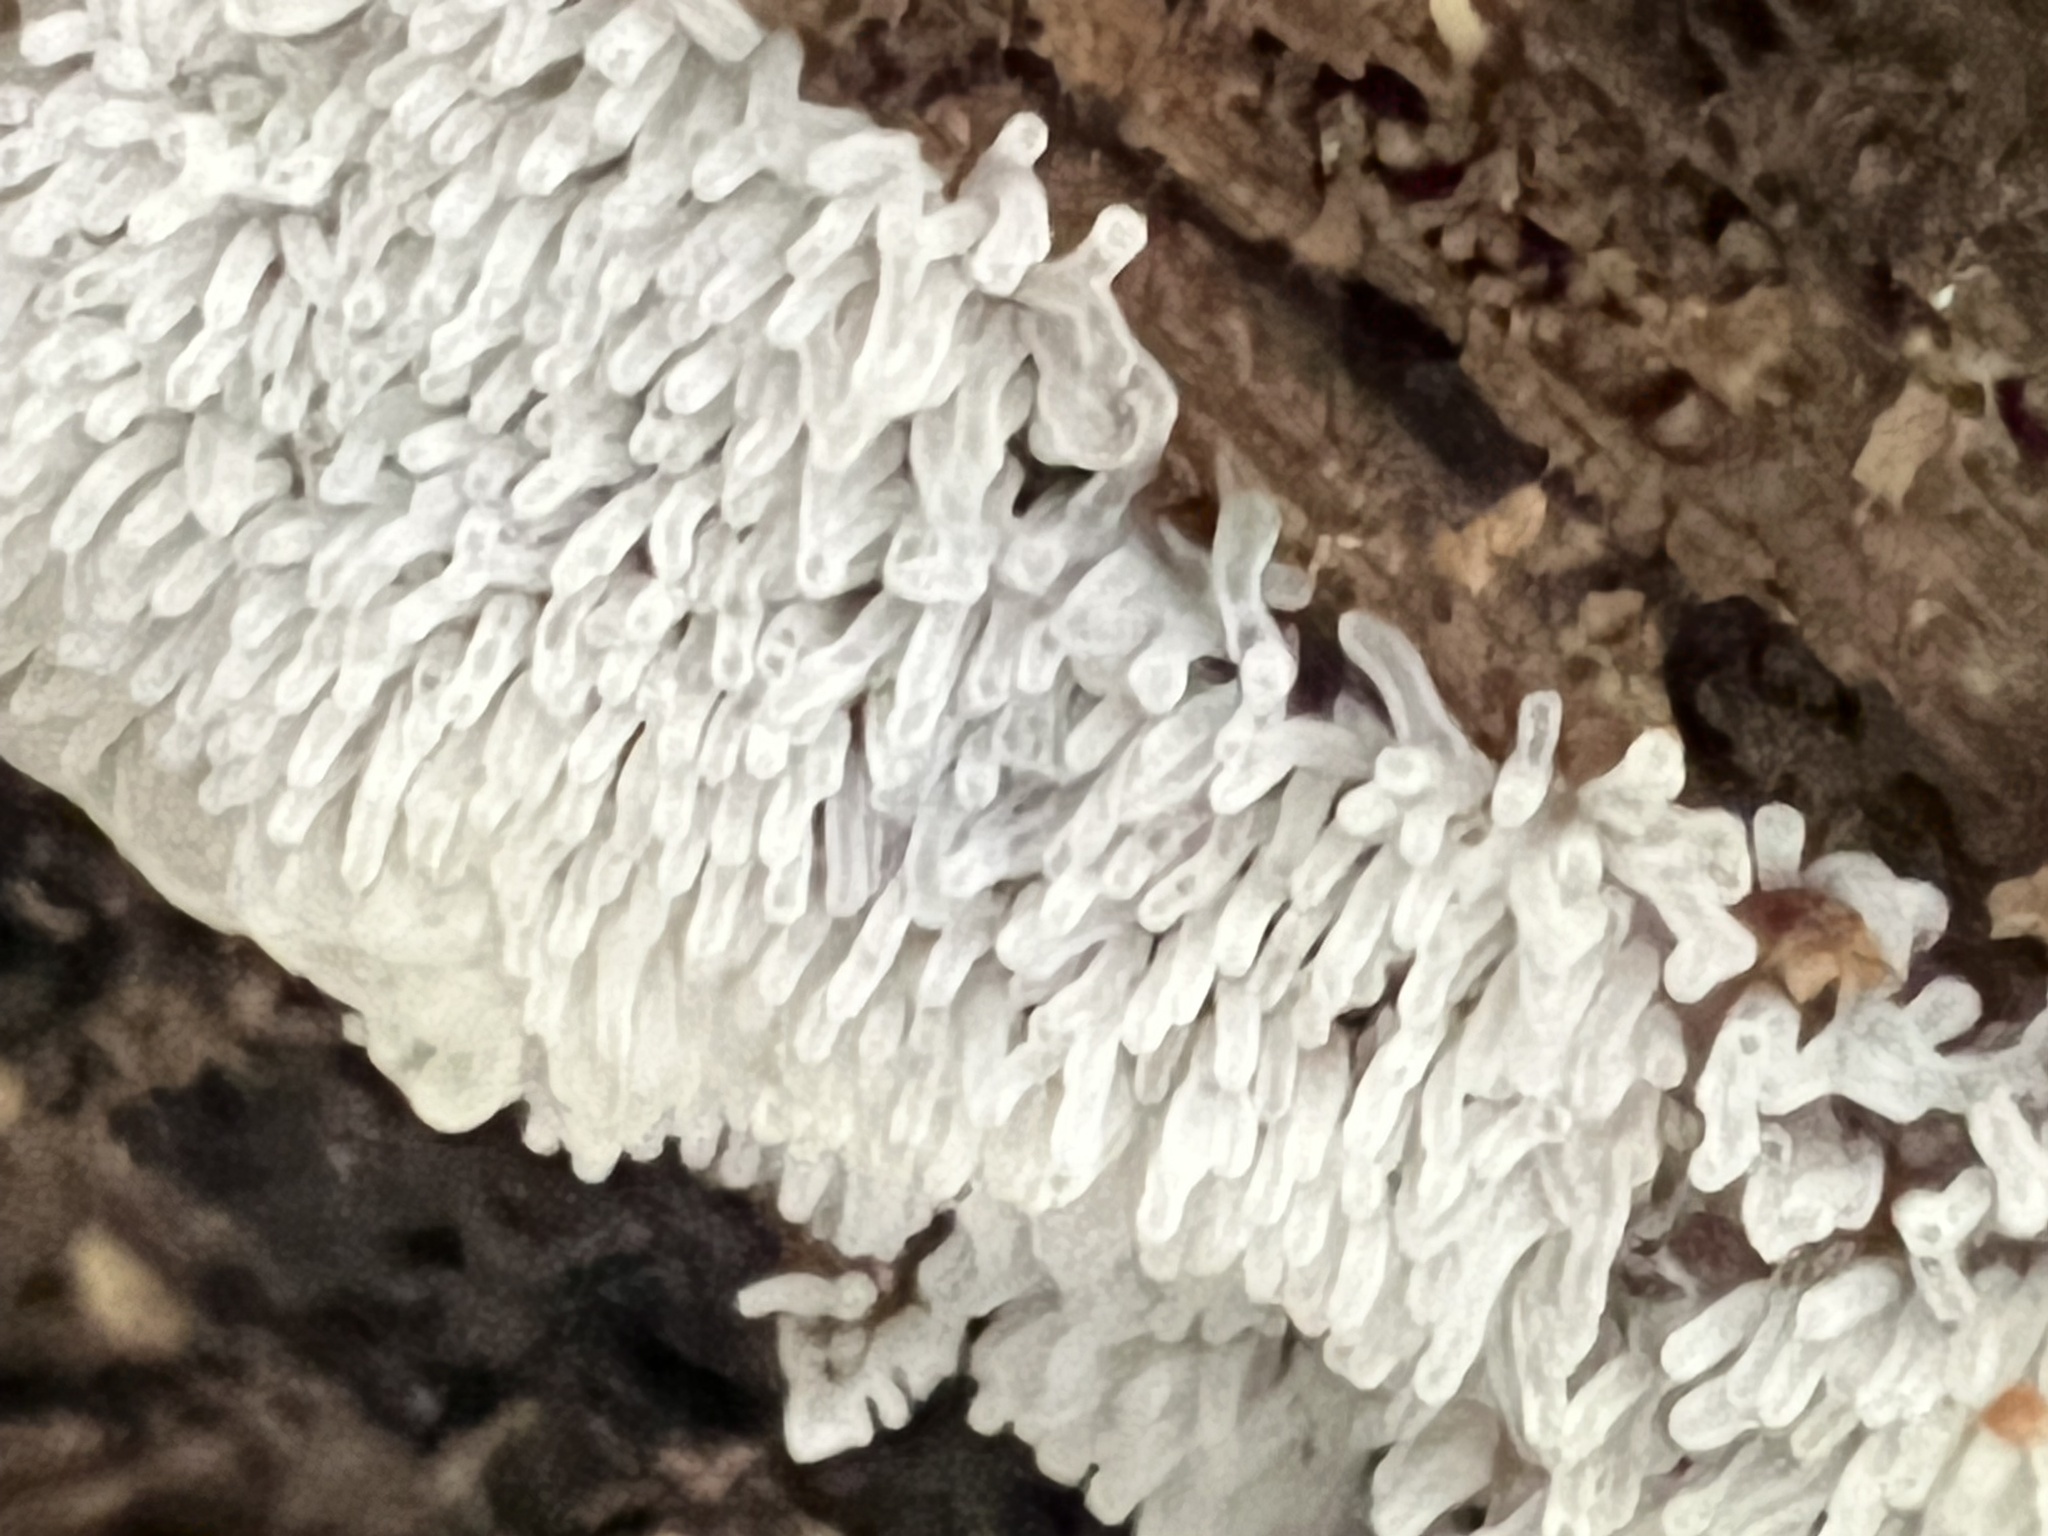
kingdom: Protozoa
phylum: Mycetozoa
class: Protosteliomycetes
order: Ceratiomyxales
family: Ceratiomyxaceae
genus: Ceratiomyxa
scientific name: Ceratiomyxa fruticulosa
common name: Honeycomb coral slime mold
